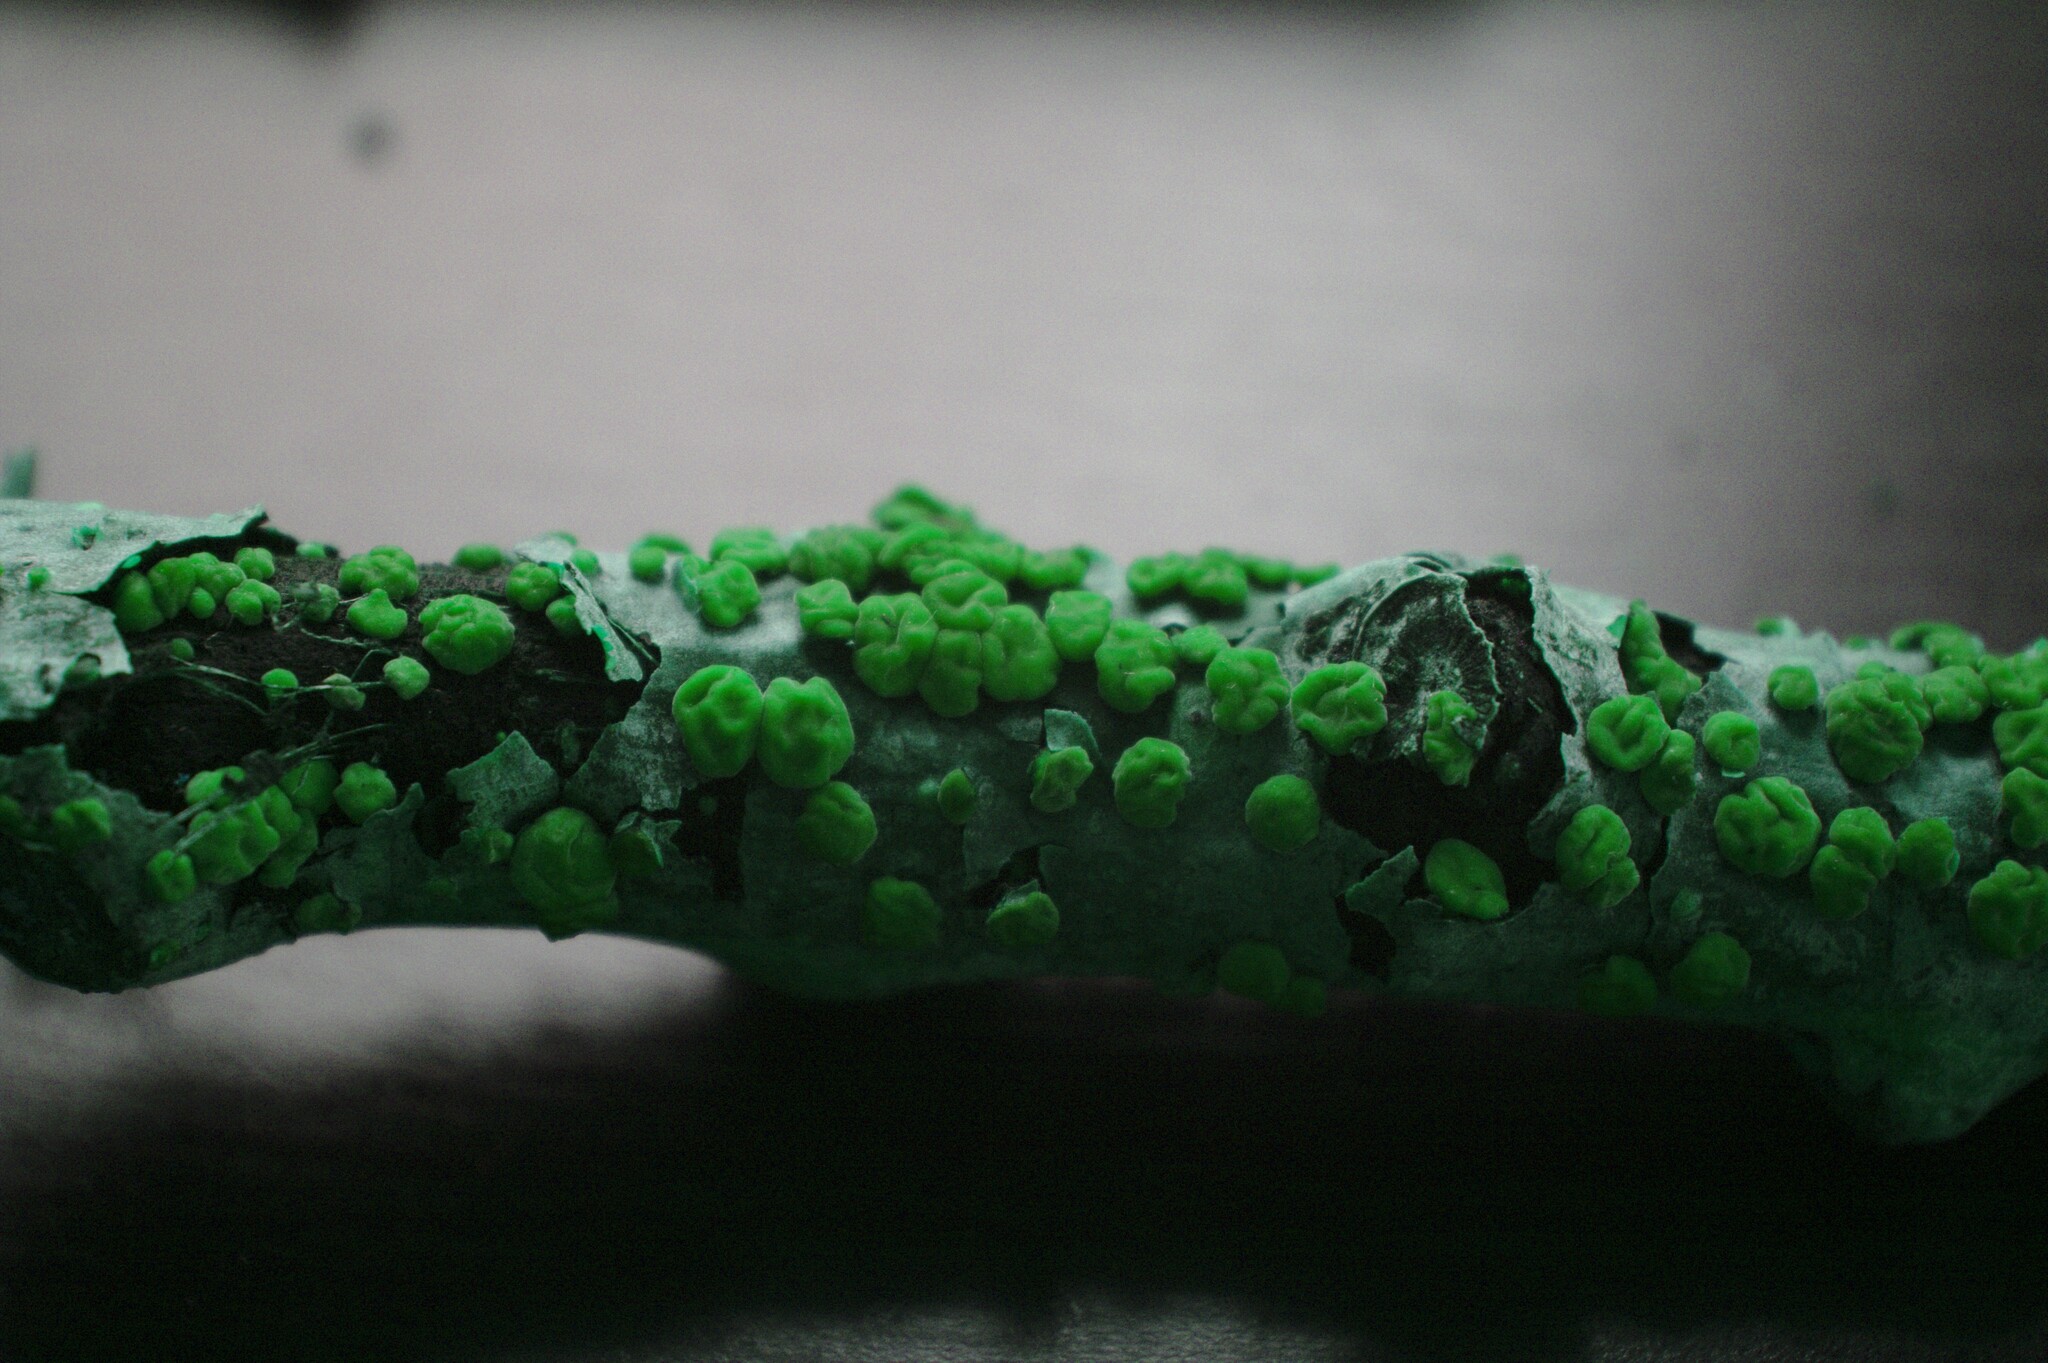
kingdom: Fungi
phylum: Basidiomycota
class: Agaricomycetes
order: Russulales
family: Peniophoraceae
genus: Peniophora
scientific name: Peniophora rufa
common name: Red tree brain fungus
